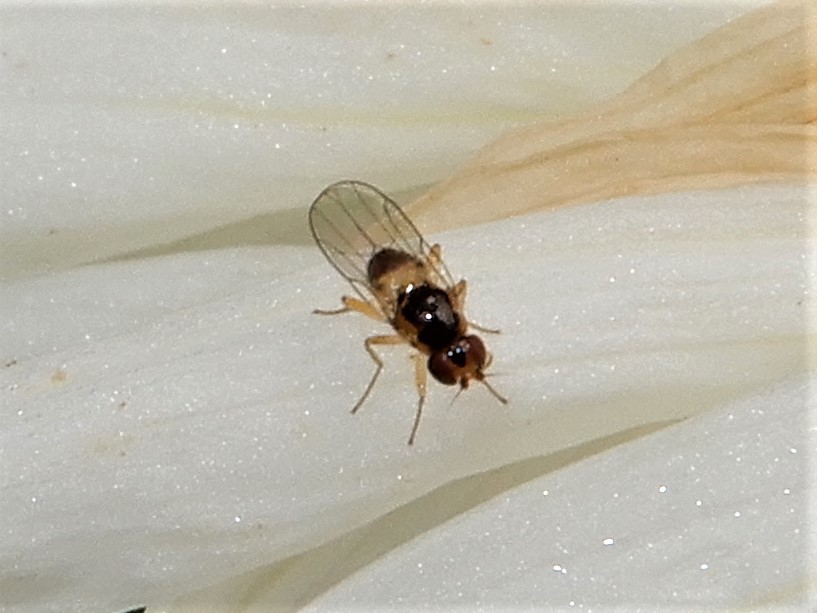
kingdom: Animalia
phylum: Arthropoda
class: Insecta
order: Diptera
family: Chloropidae
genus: Gaurax
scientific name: Gaurax mesopleuralis
